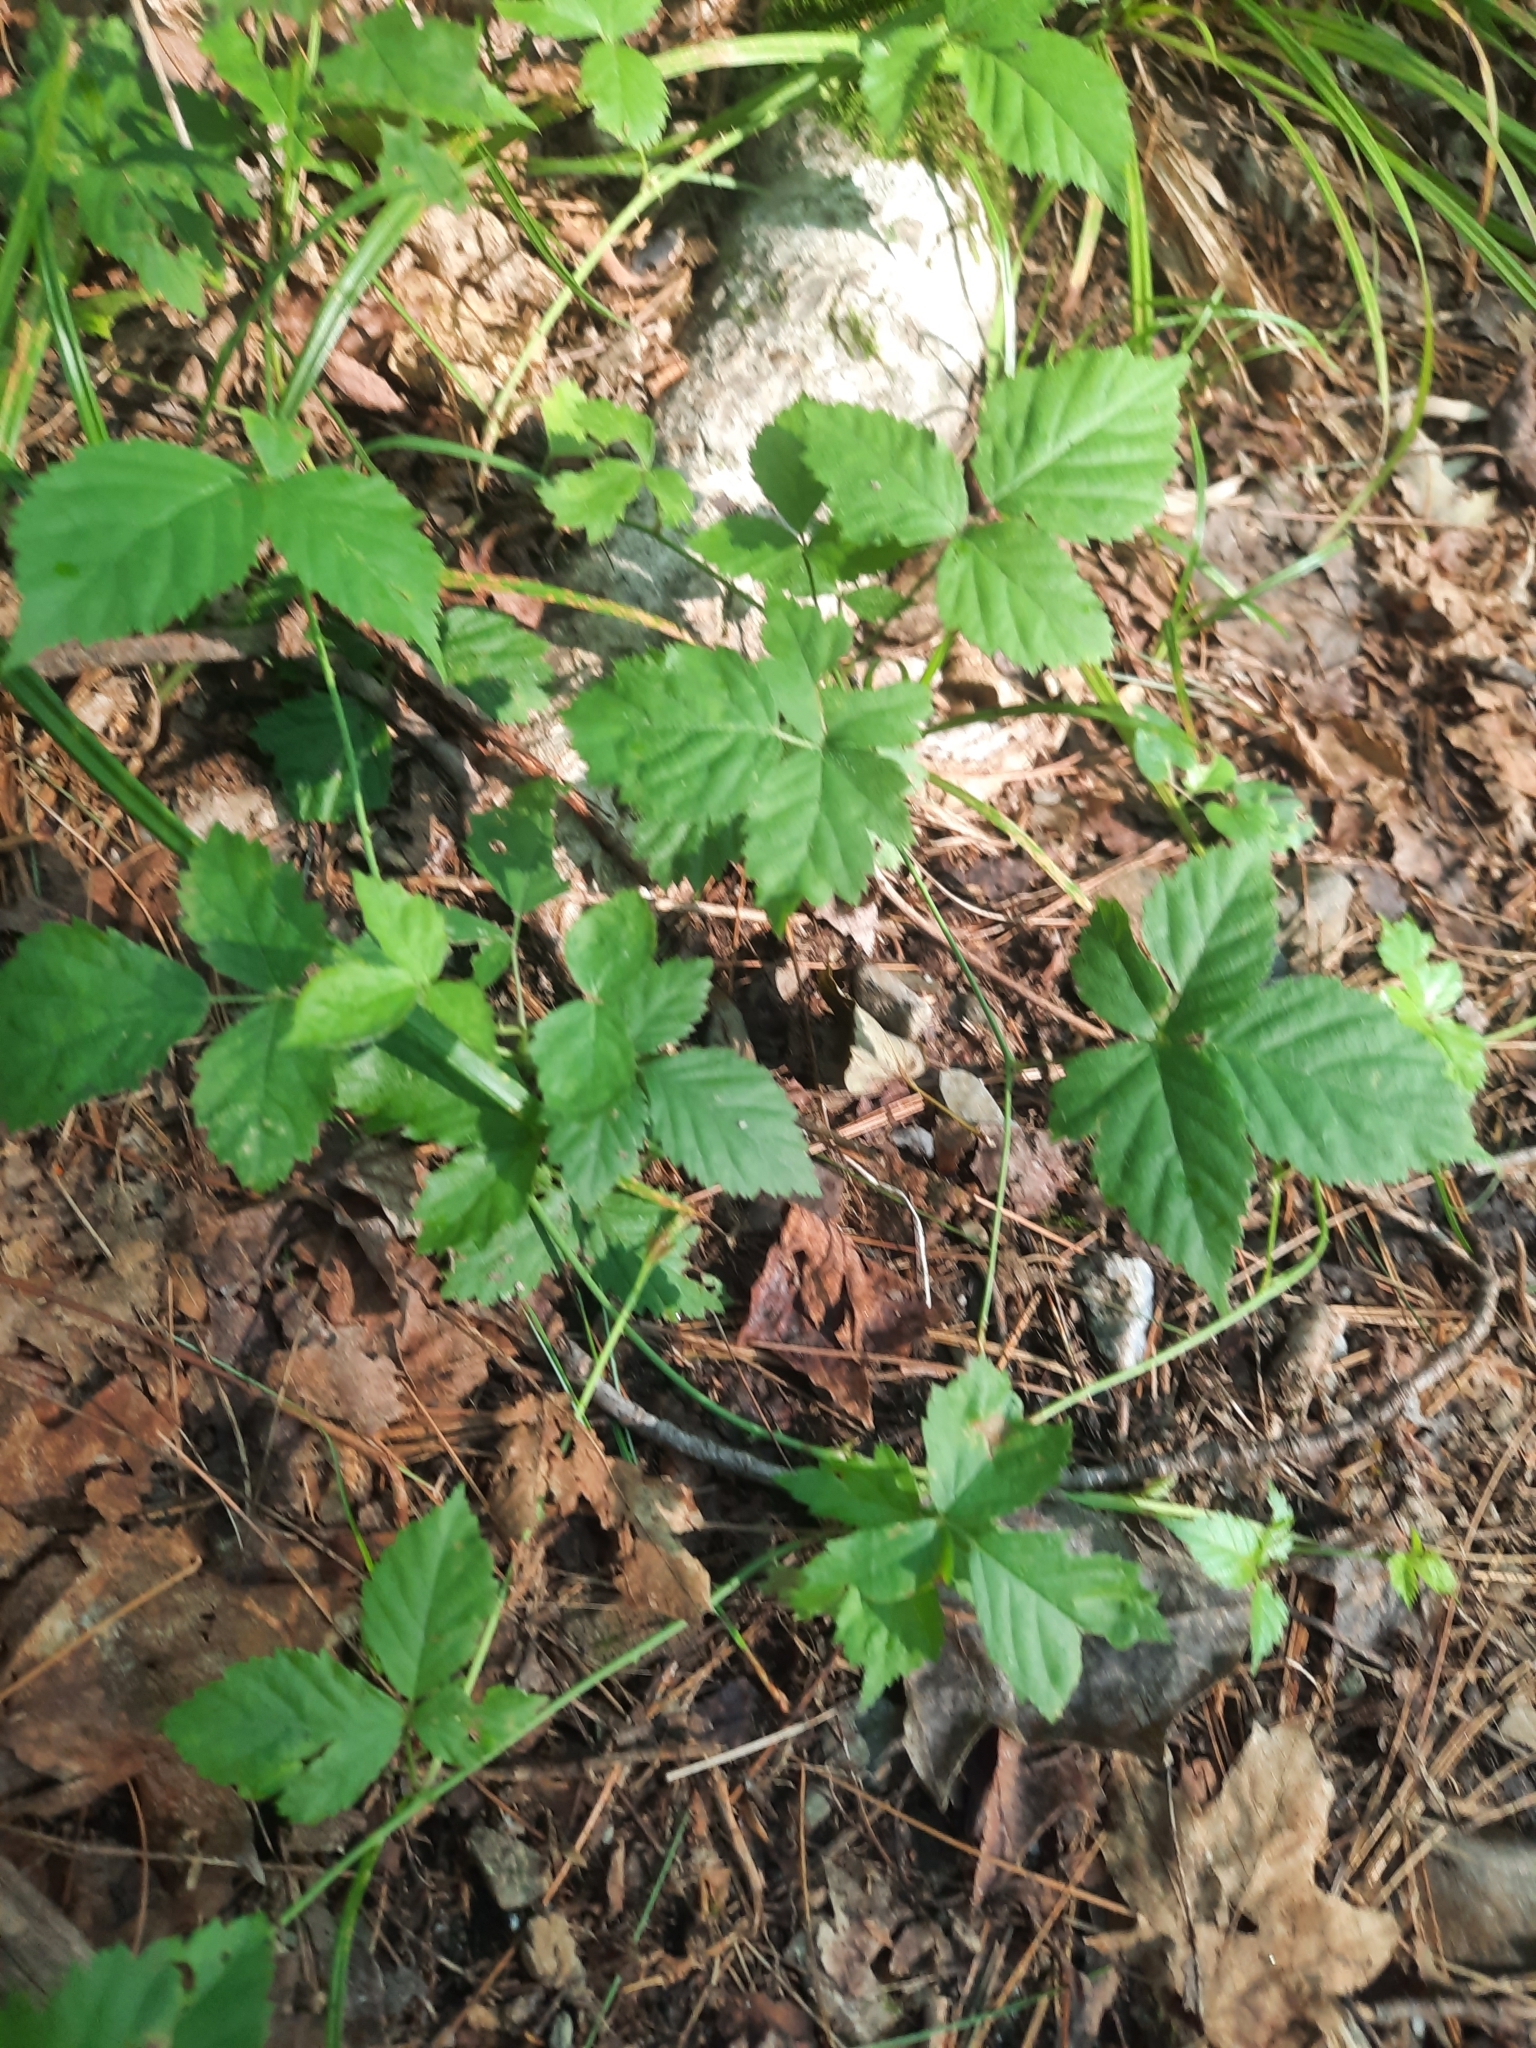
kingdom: Plantae
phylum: Tracheophyta
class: Magnoliopsida
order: Rosales
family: Rosaceae
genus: Rubus
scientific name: Rubus flagellaris
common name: American dewberry
